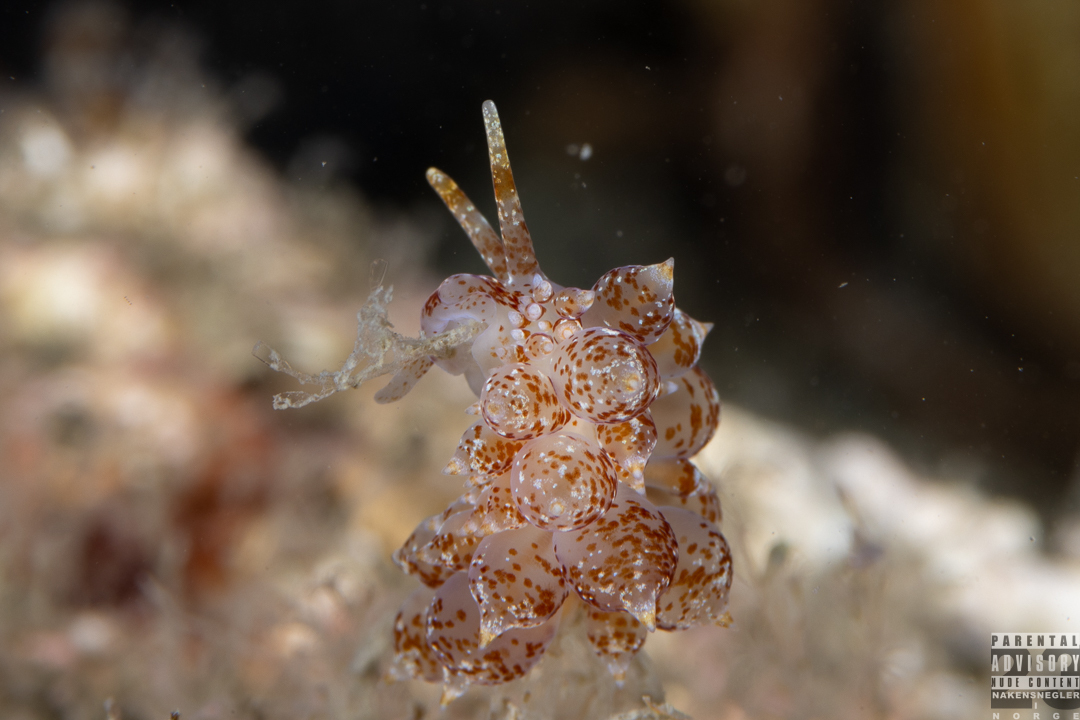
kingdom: Animalia
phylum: Mollusca
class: Gastropoda
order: Nudibranchia
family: Eubranchidae
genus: Amphorina
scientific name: Amphorina pallida
